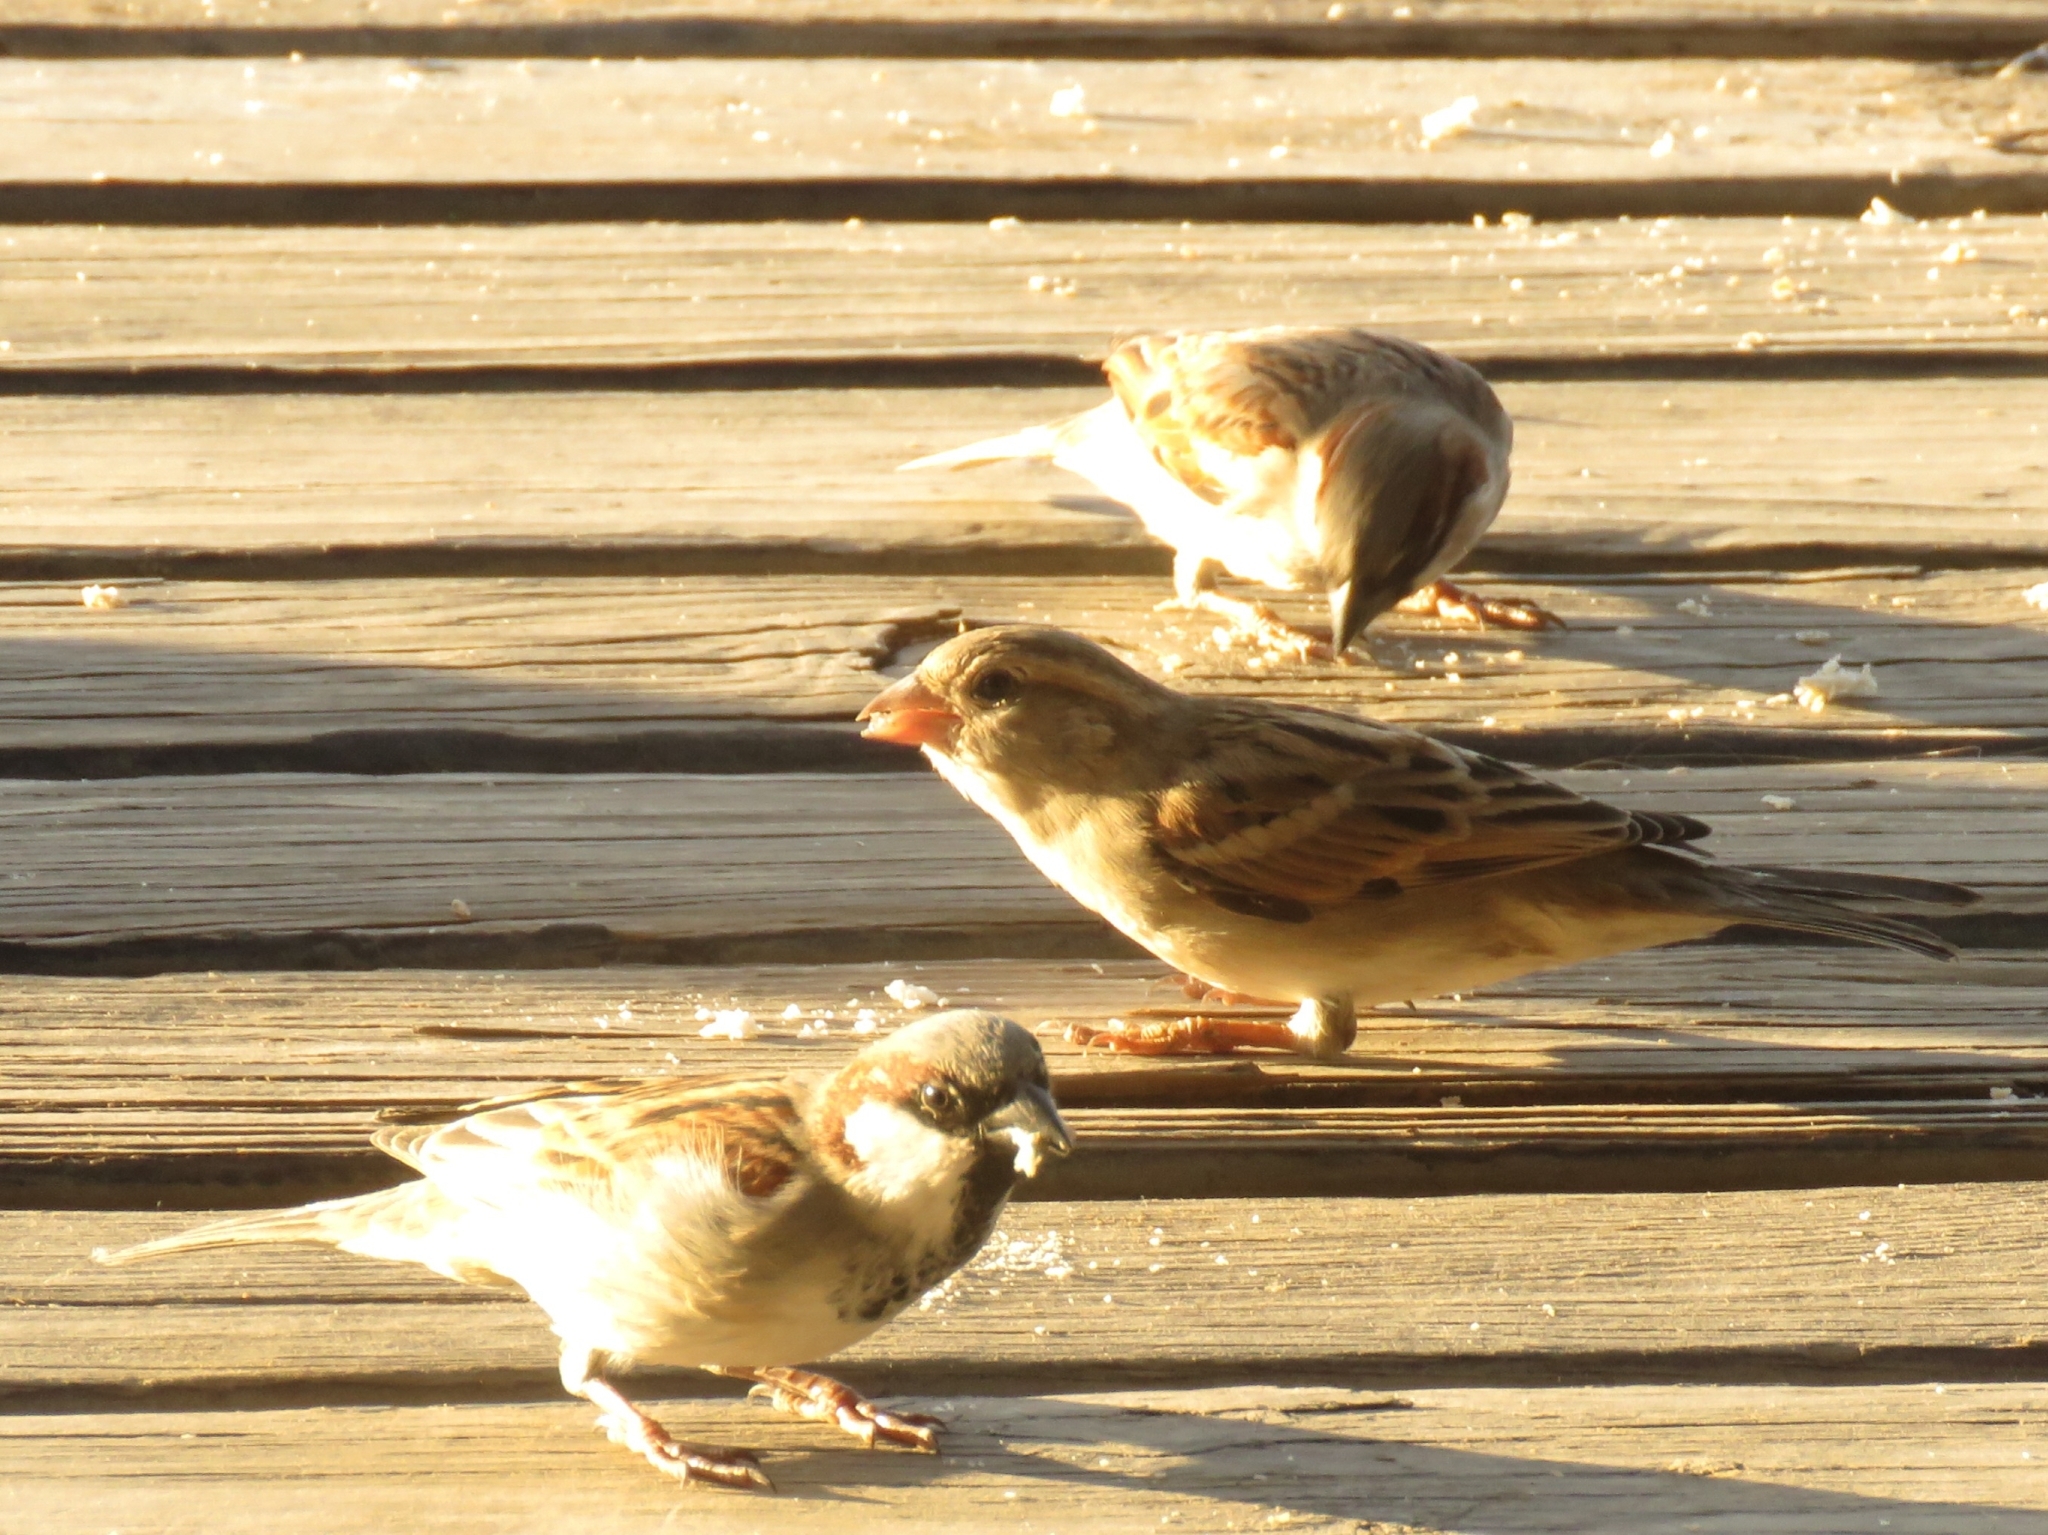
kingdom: Animalia
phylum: Chordata
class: Aves
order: Passeriformes
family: Passeridae
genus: Passer
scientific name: Passer domesticus
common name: House sparrow
